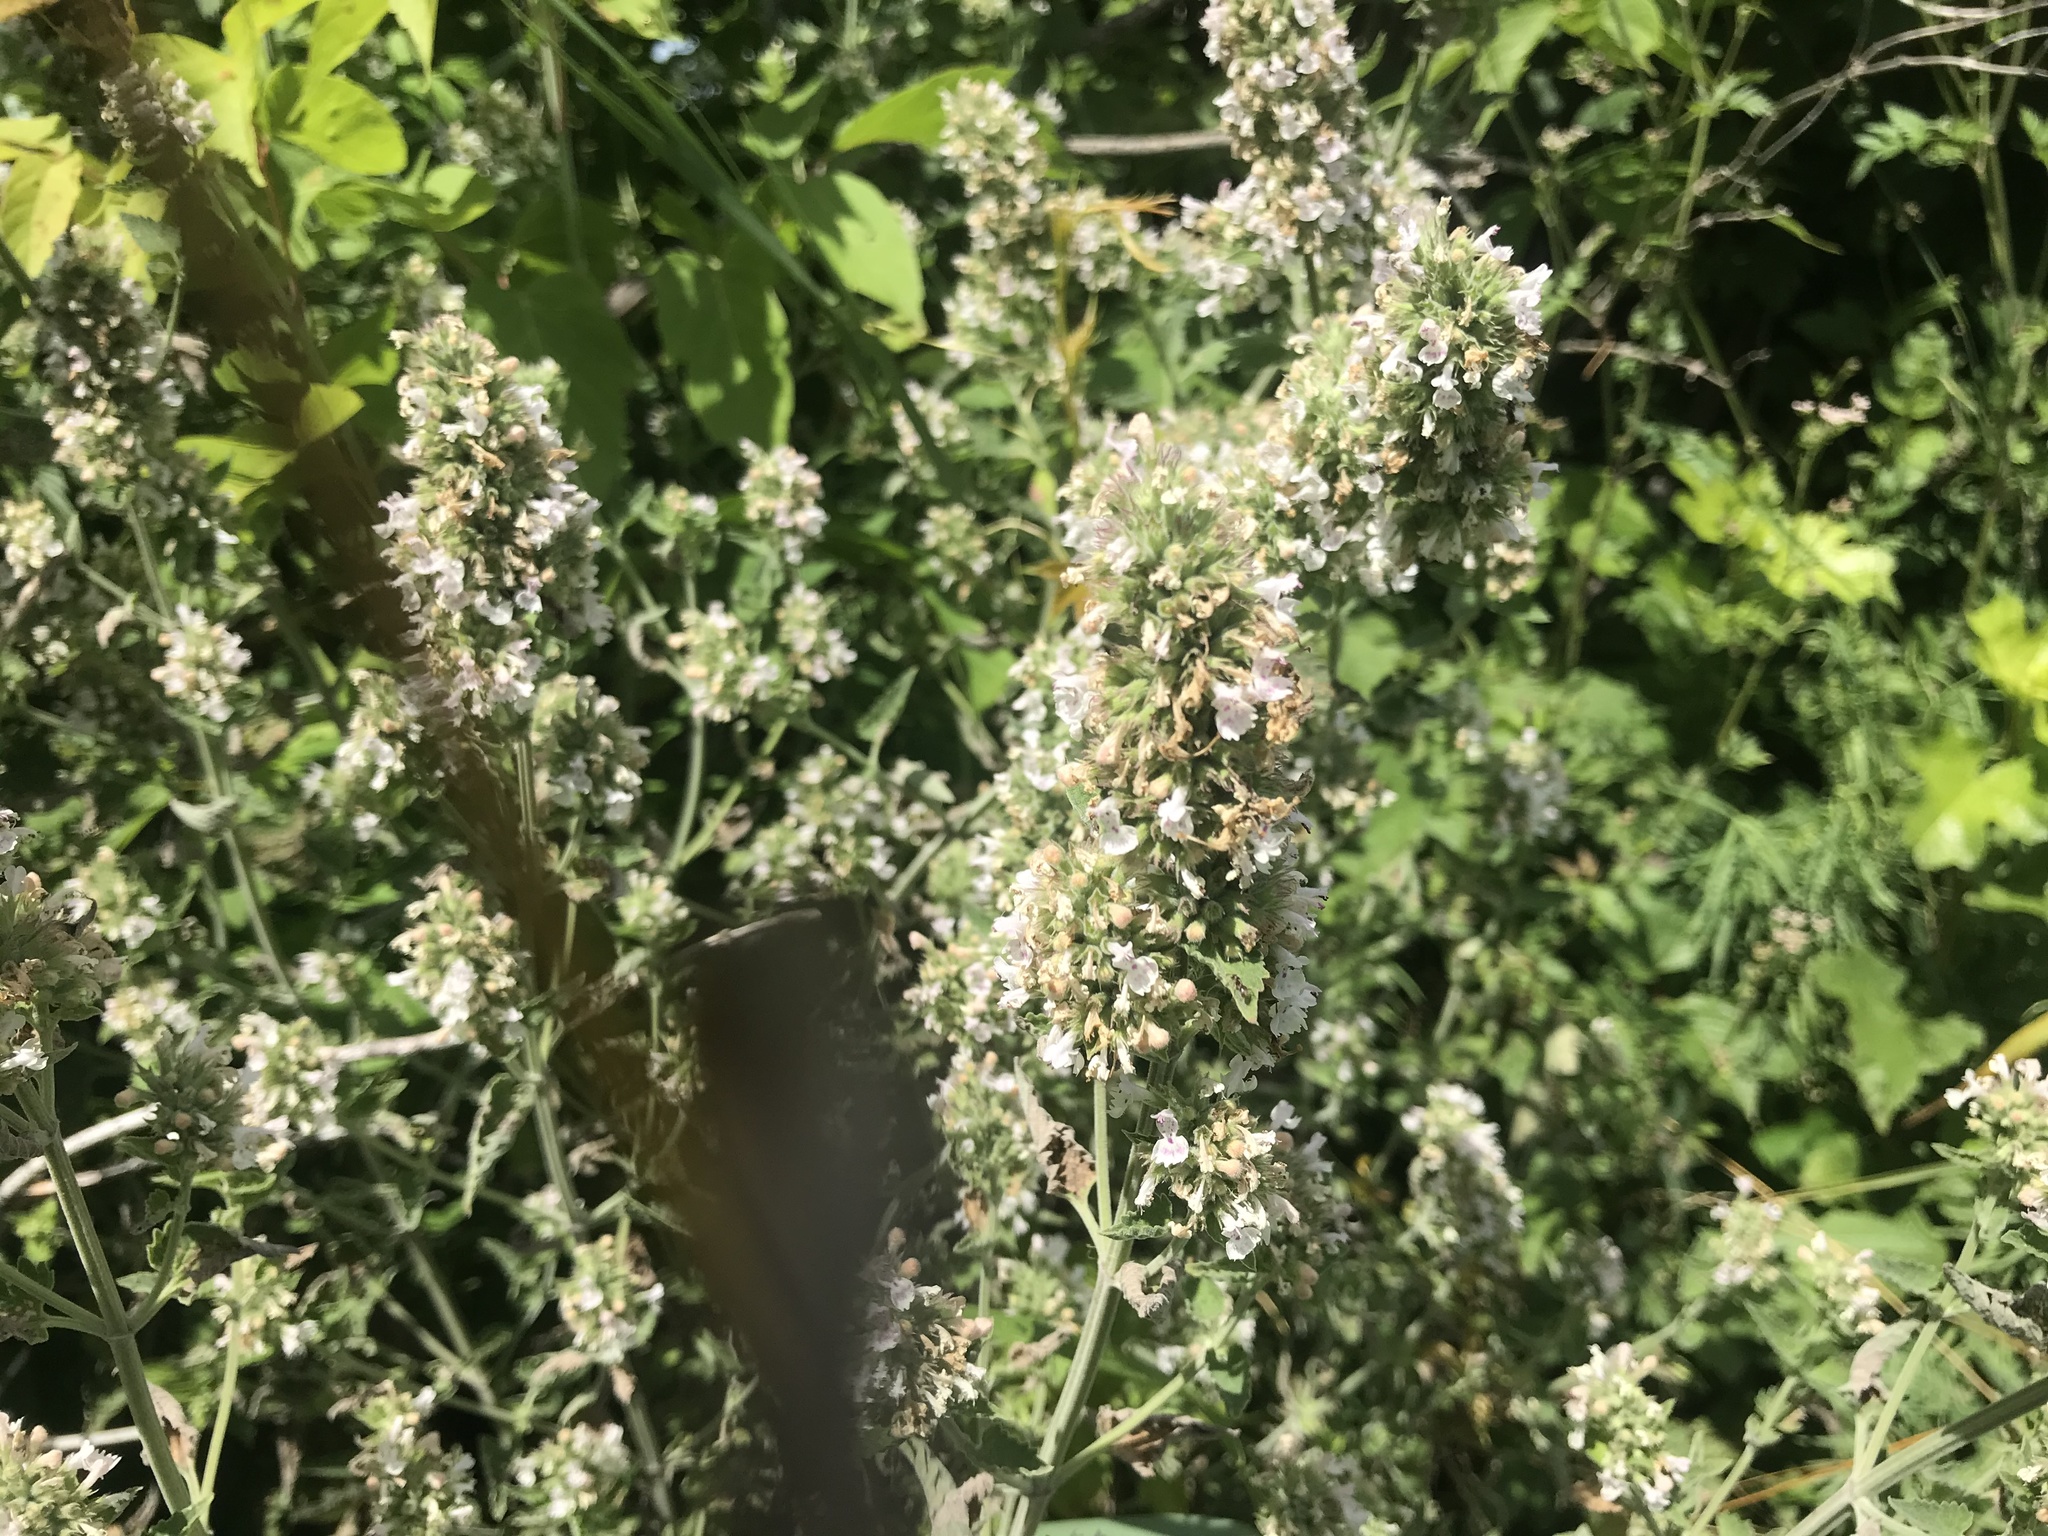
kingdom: Plantae
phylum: Tracheophyta
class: Magnoliopsida
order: Lamiales
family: Lamiaceae
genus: Nepeta
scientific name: Nepeta cataria
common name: Catnip
